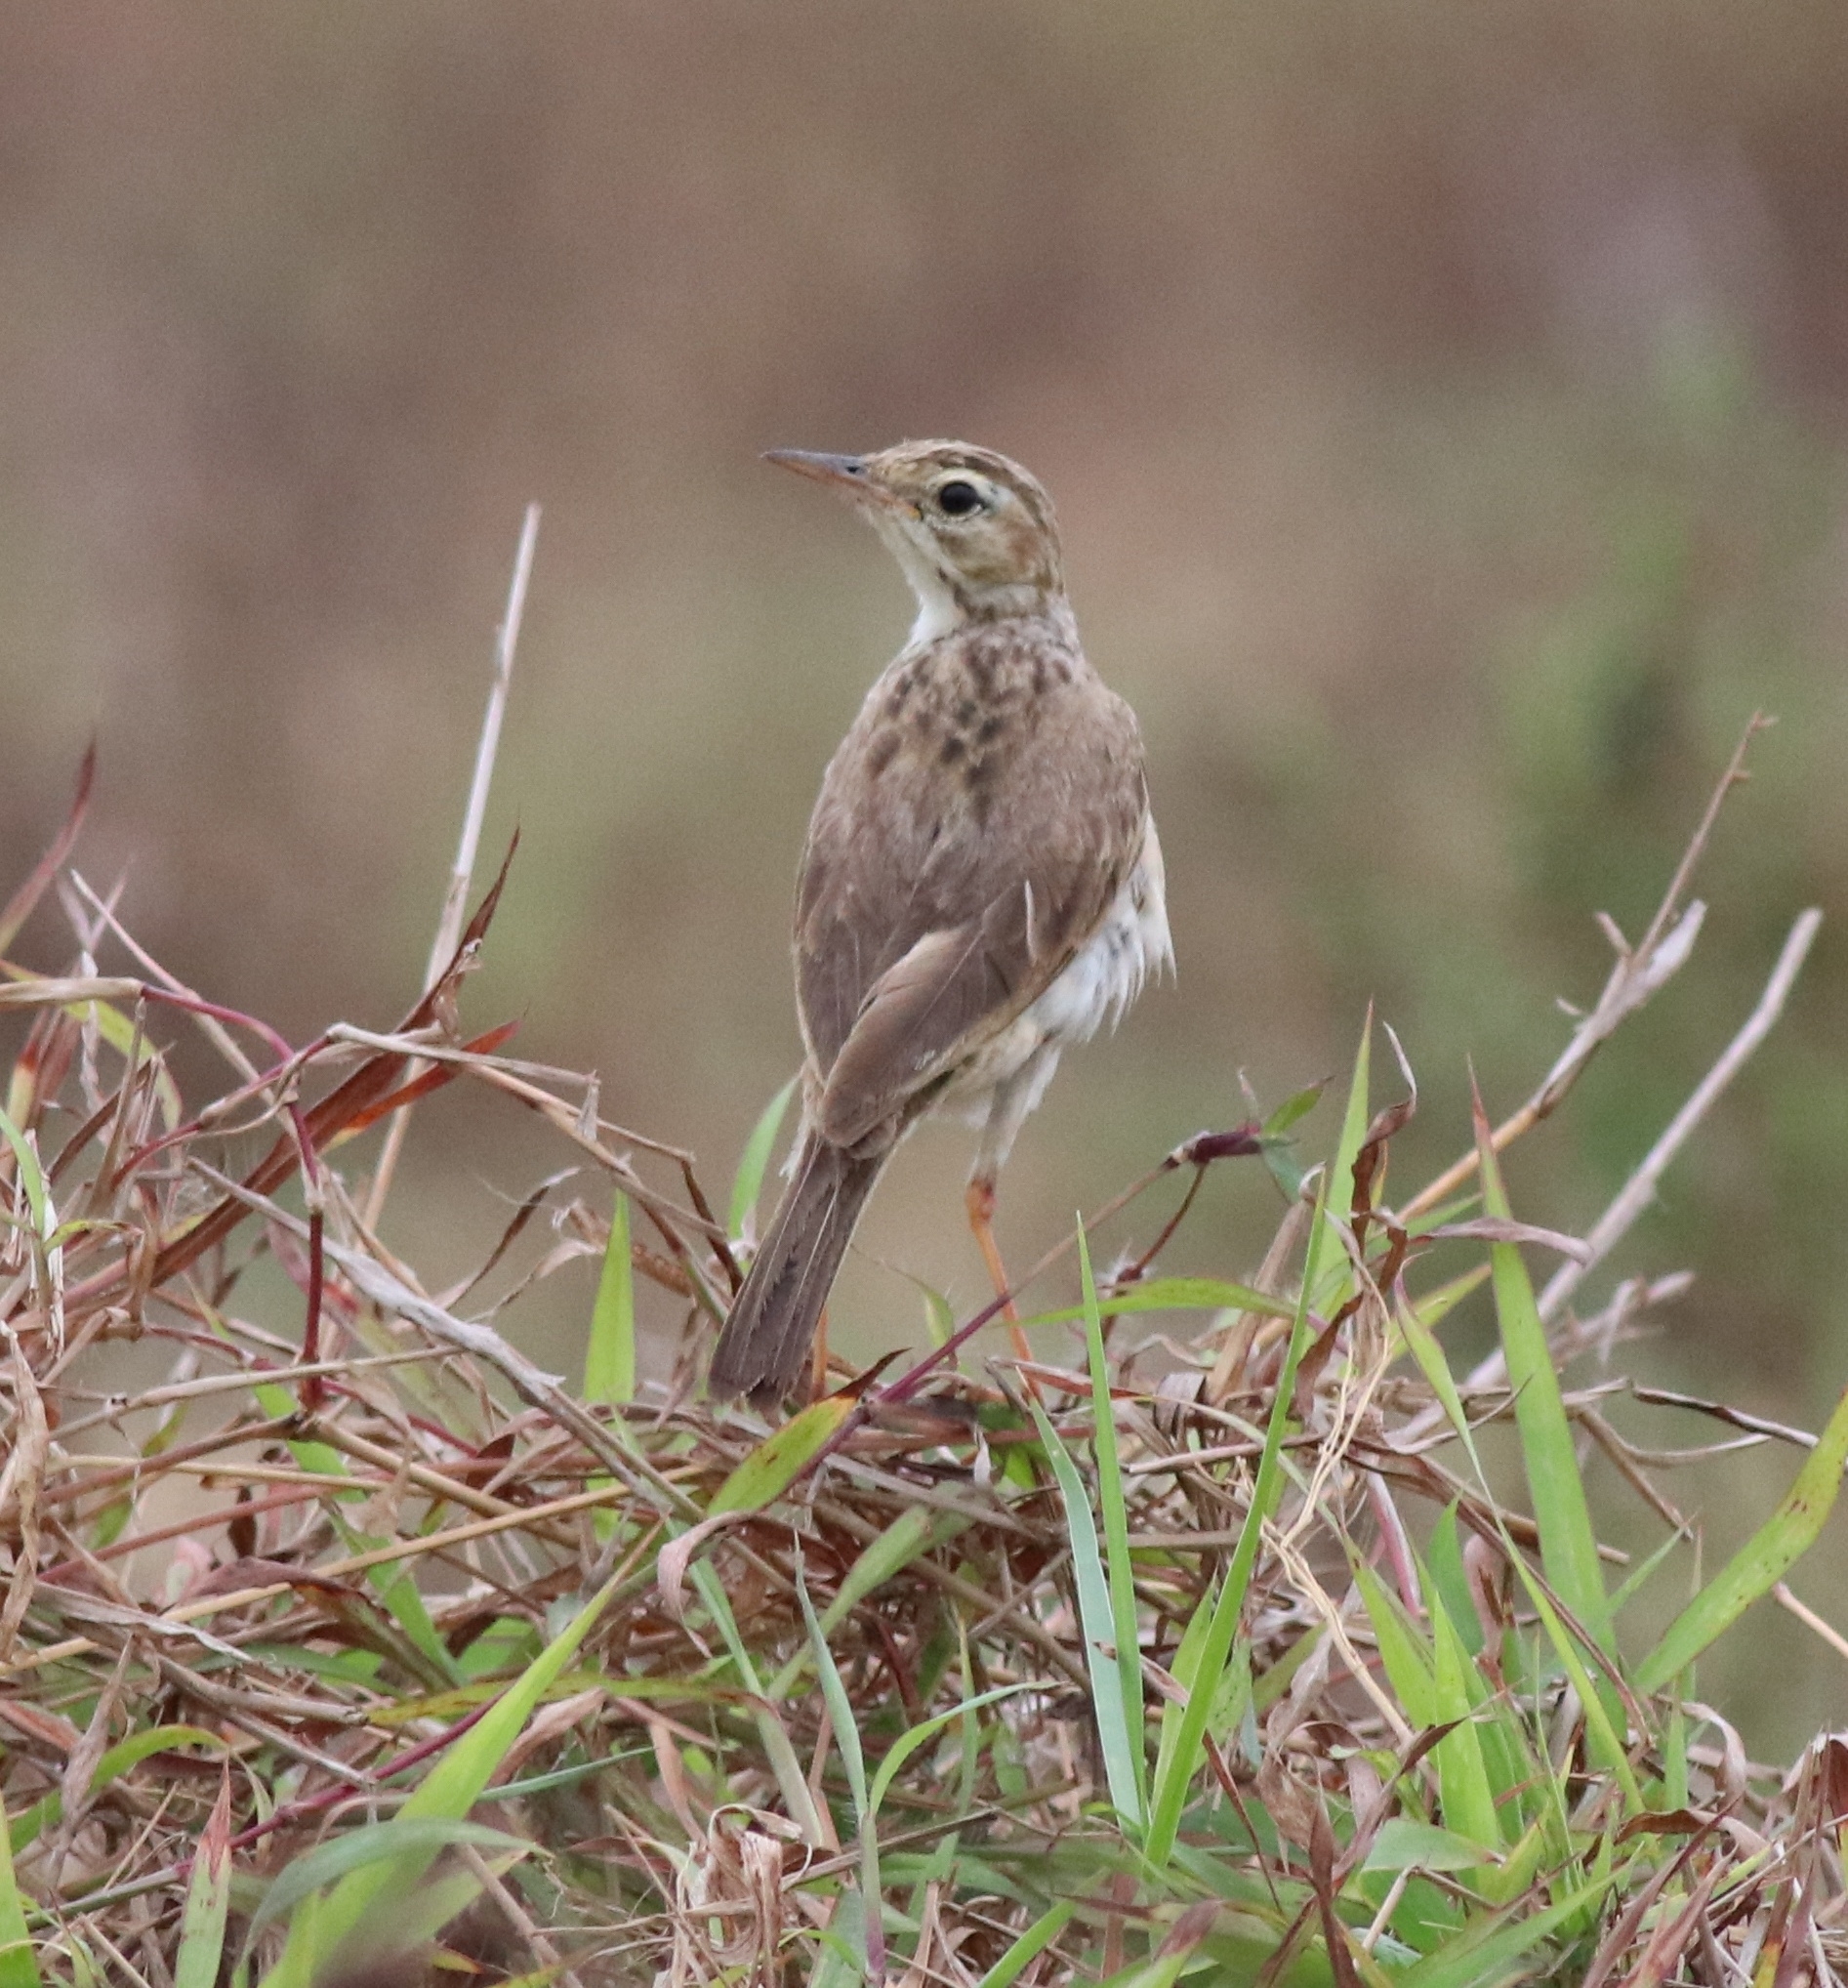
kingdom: Animalia
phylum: Chordata
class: Aves
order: Passeriformes
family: Motacillidae
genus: Anthus
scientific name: Anthus rufulus
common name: Paddyfield pipit
